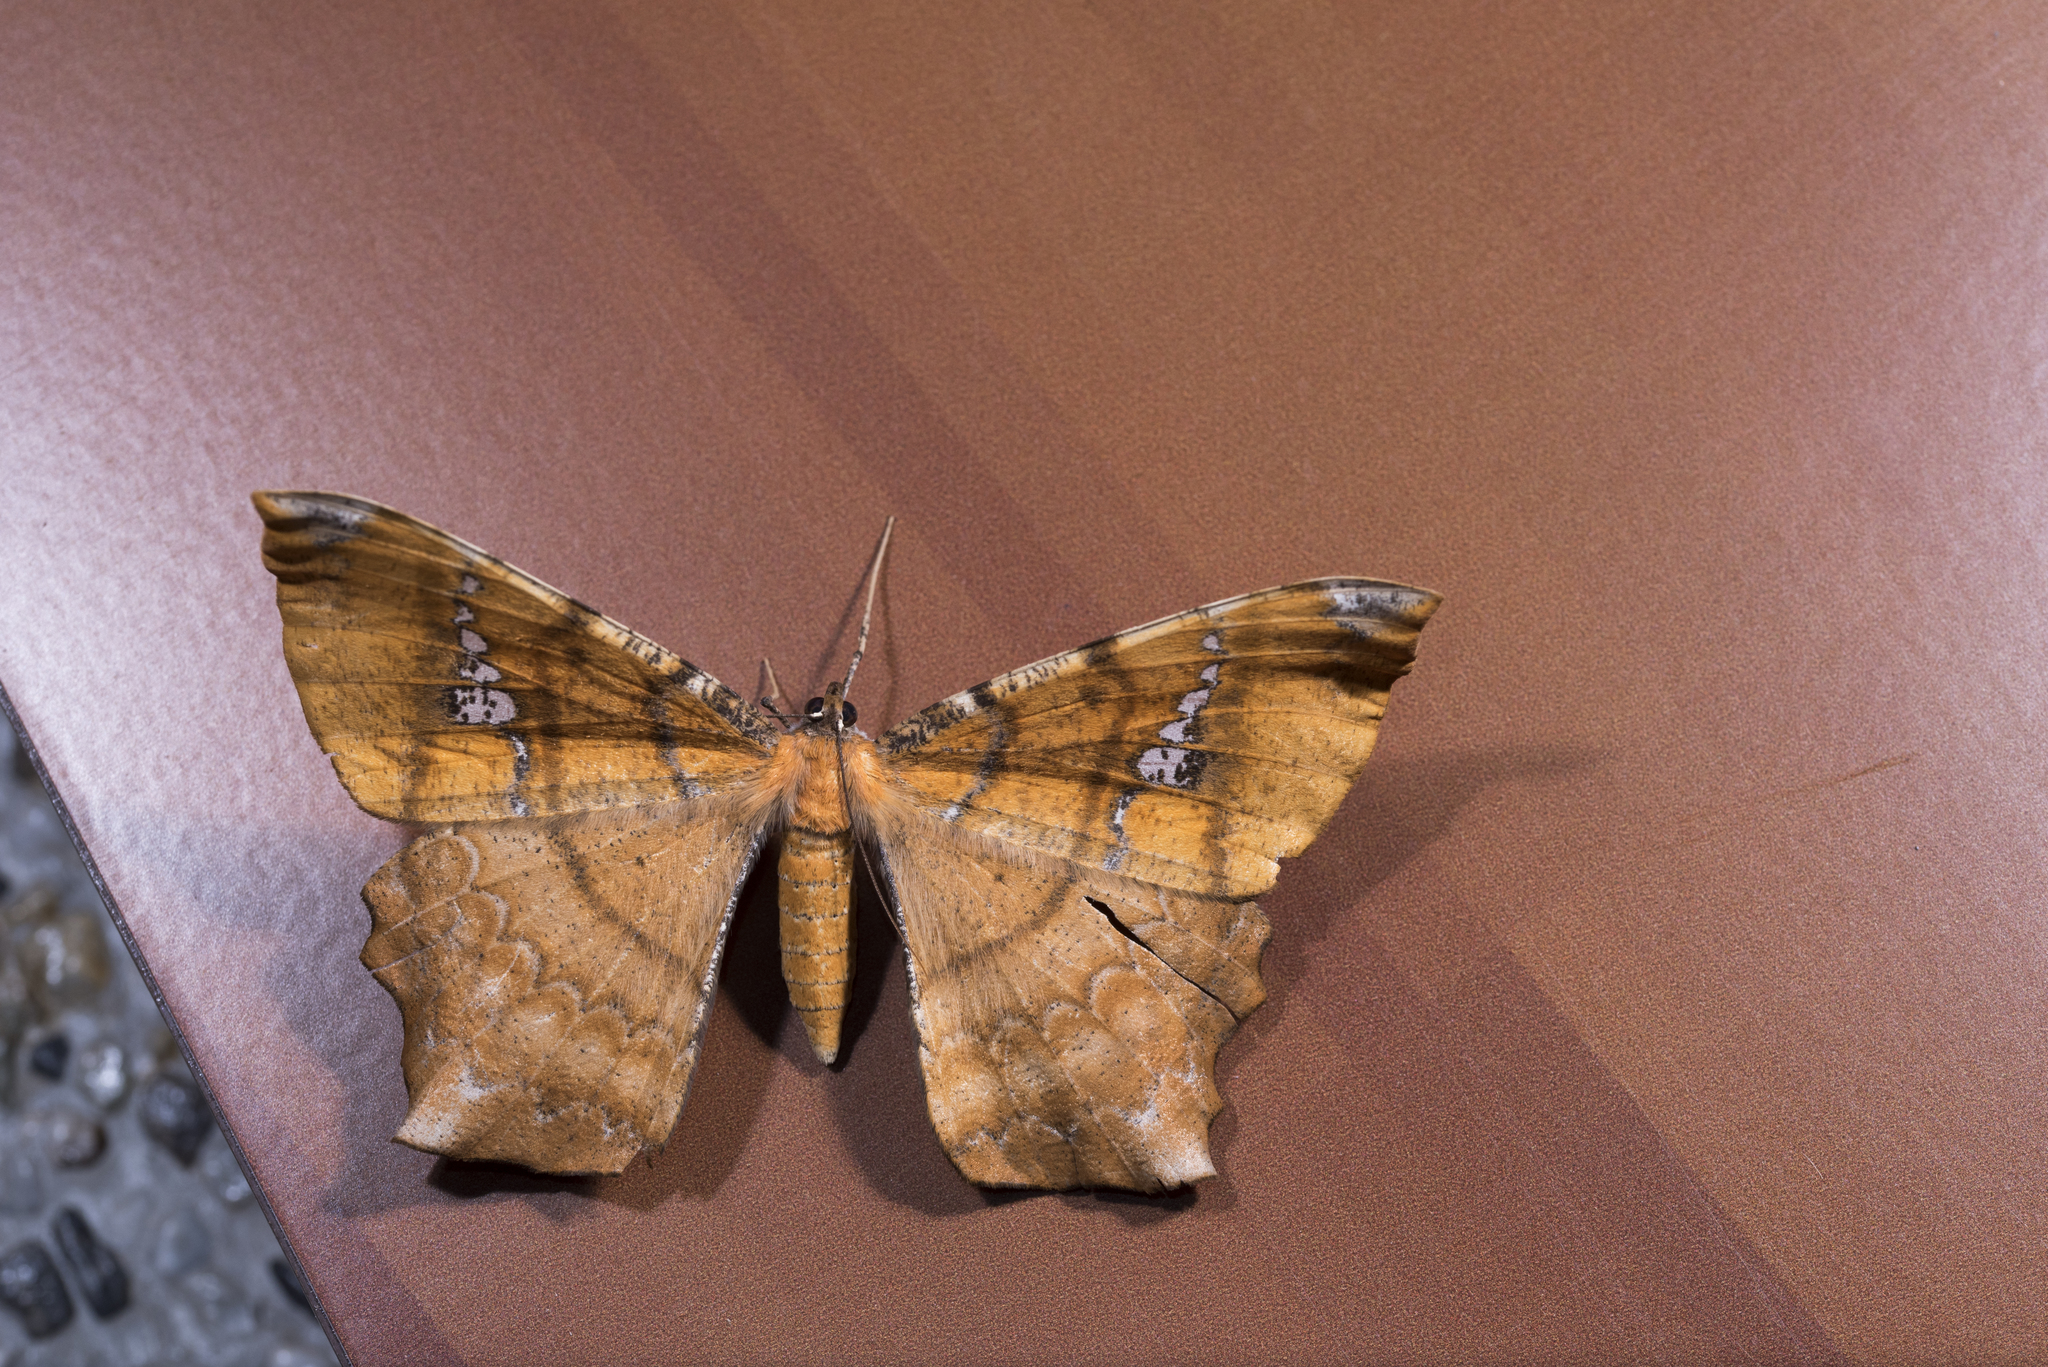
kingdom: Animalia
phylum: Arthropoda
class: Insecta
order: Lepidoptera
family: Geometridae
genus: Amblychia
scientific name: Amblychia angeronaria
